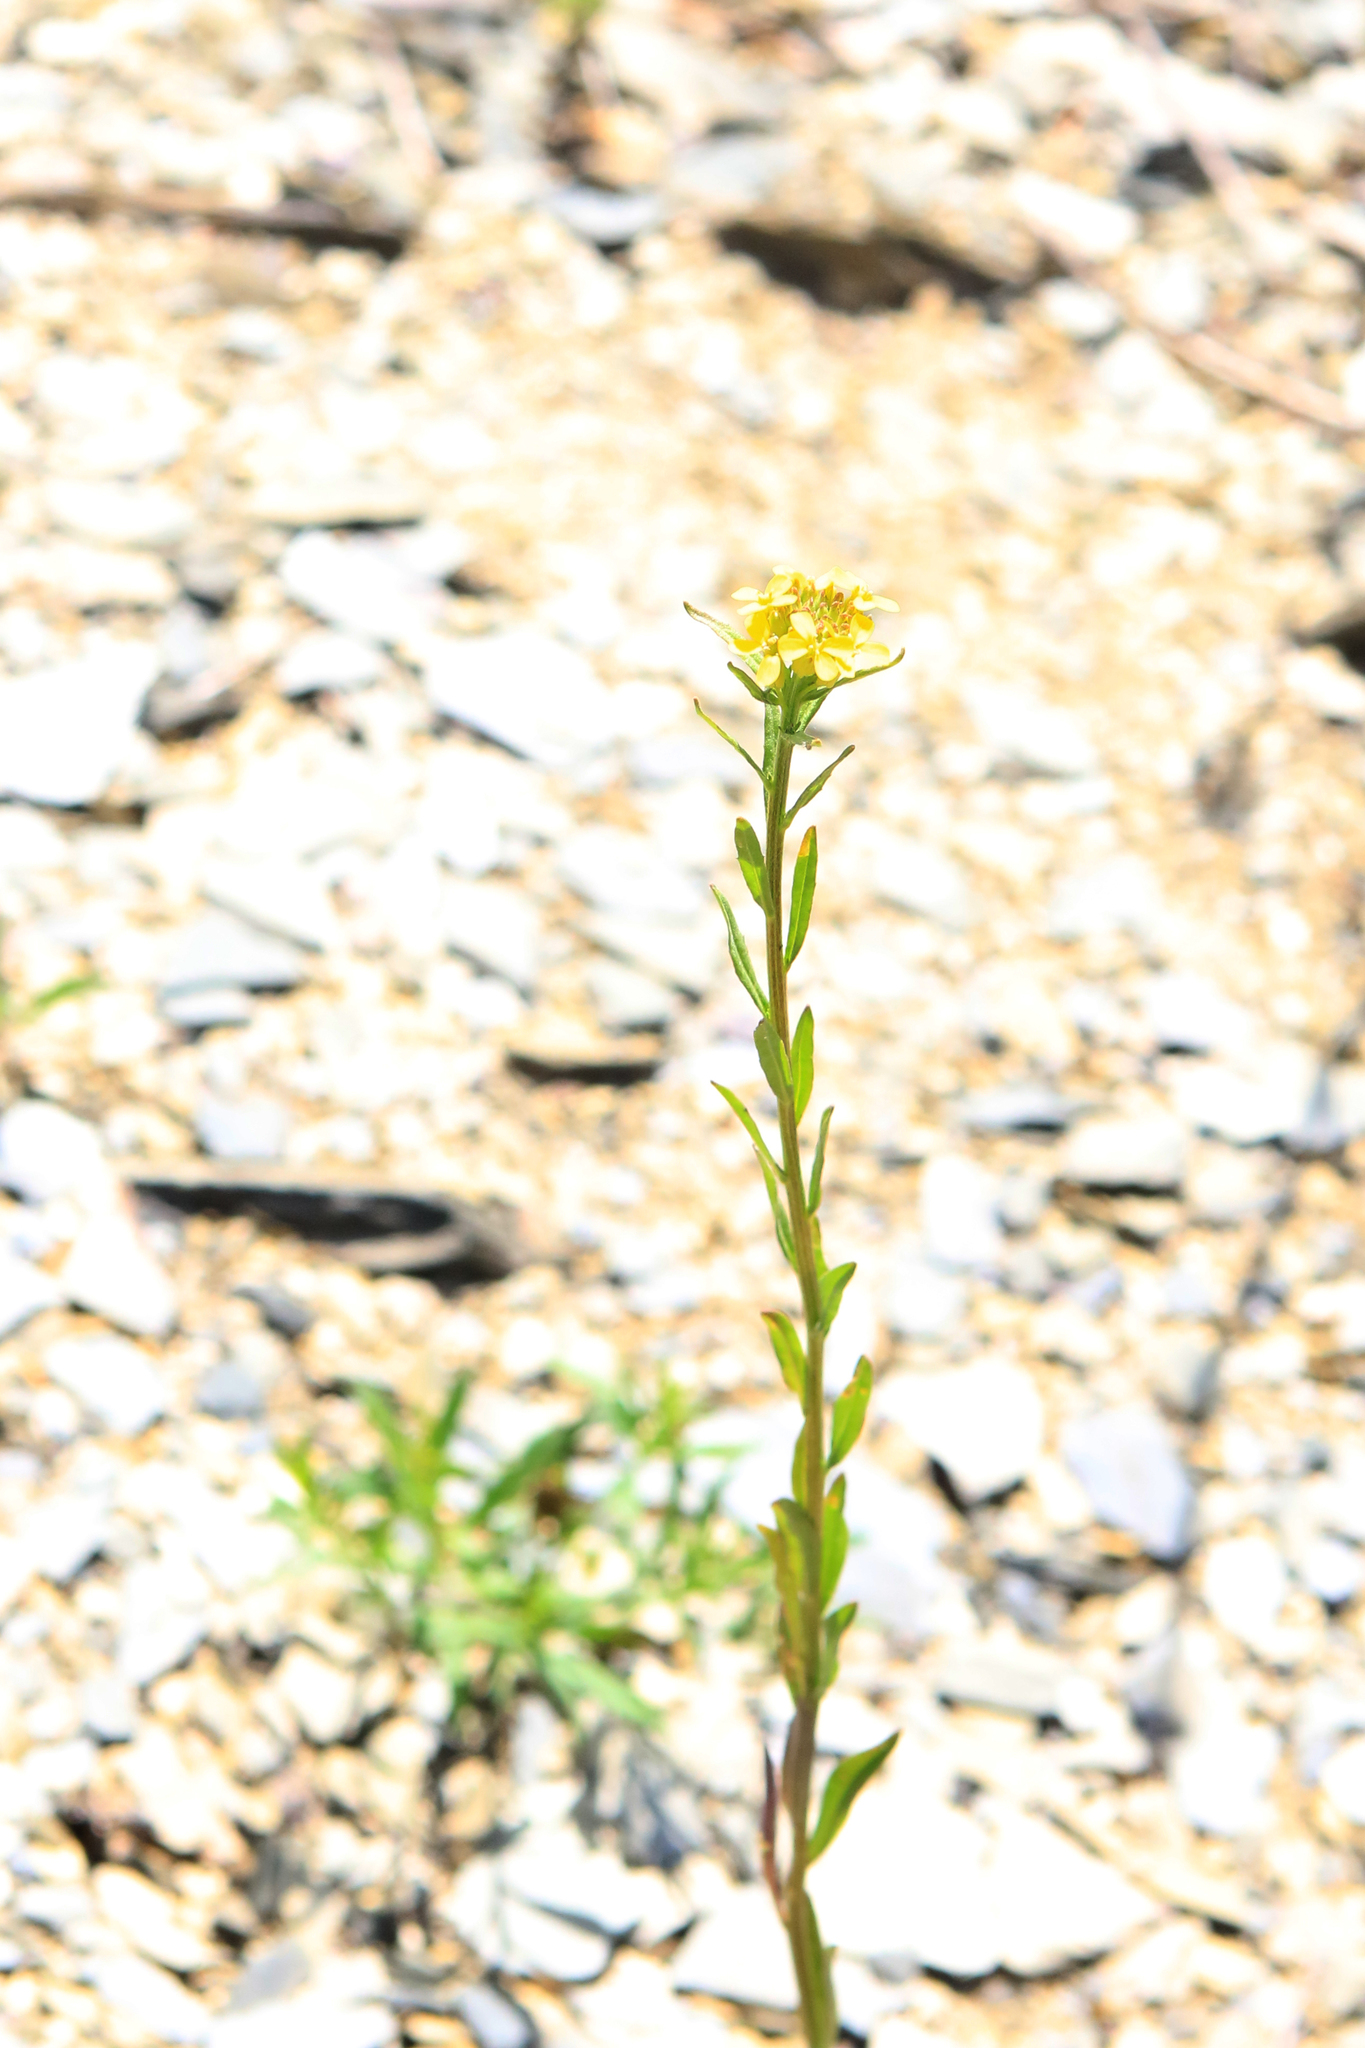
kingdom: Plantae
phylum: Tracheophyta
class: Magnoliopsida
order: Brassicales
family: Brassicaceae
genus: Erysimum
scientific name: Erysimum cheiranthoides
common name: Treacle mustard
